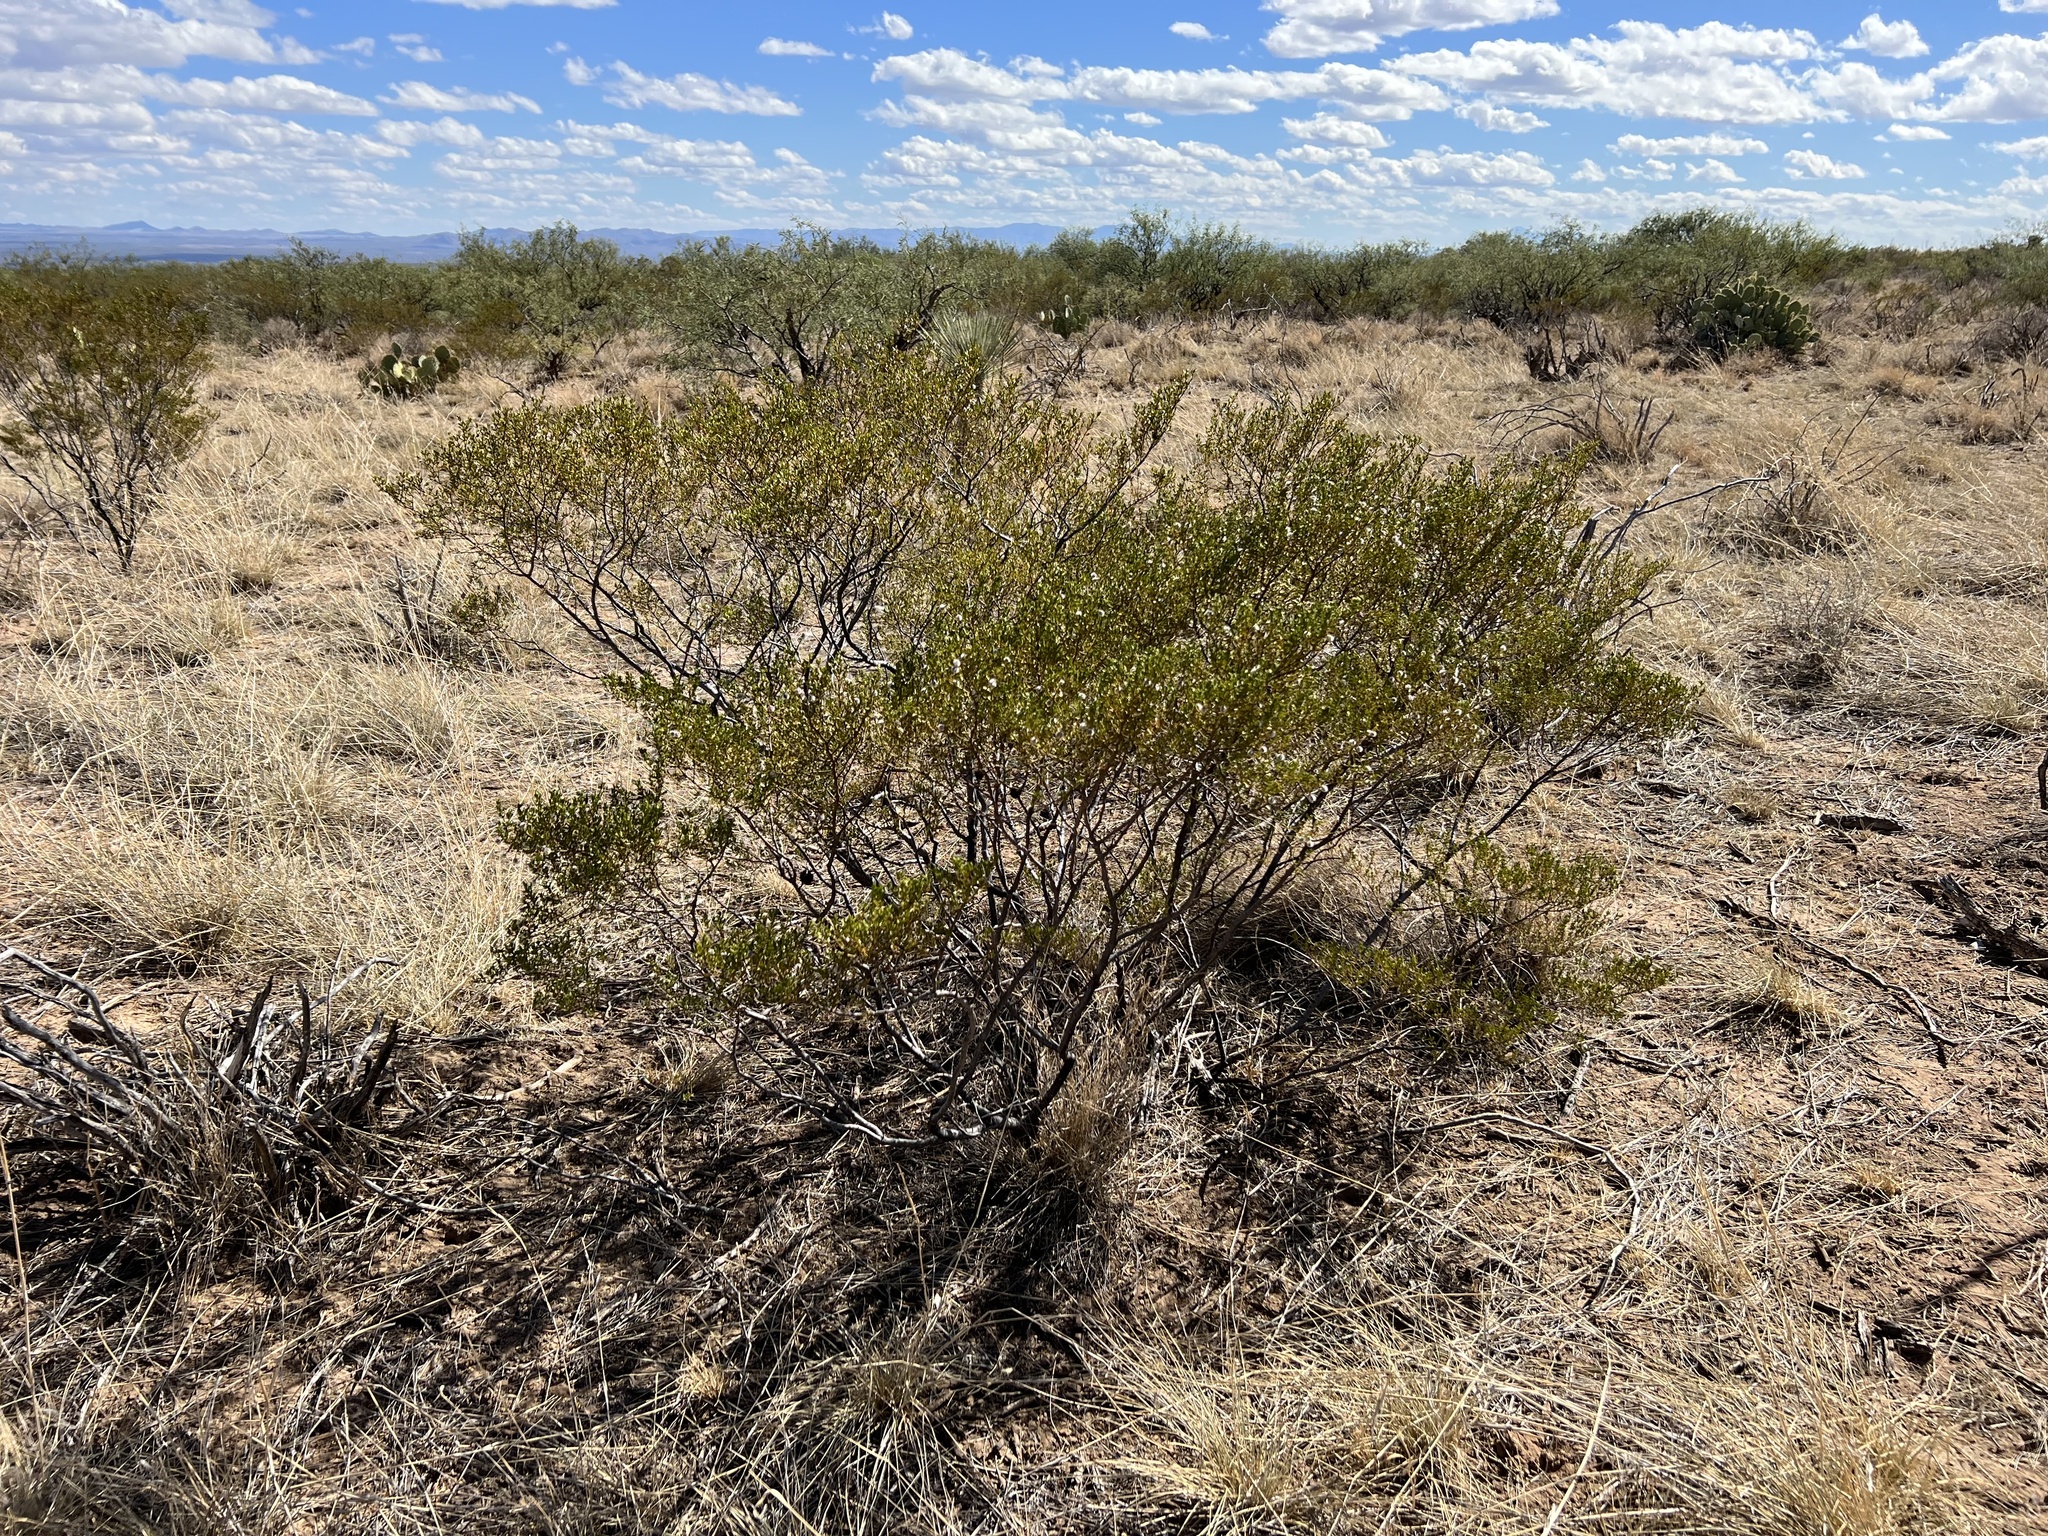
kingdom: Plantae
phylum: Tracheophyta
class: Magnoliopsida
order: Zygophyllales
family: Zygophyllaceae
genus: Larrea
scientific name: Larrea tridentata
